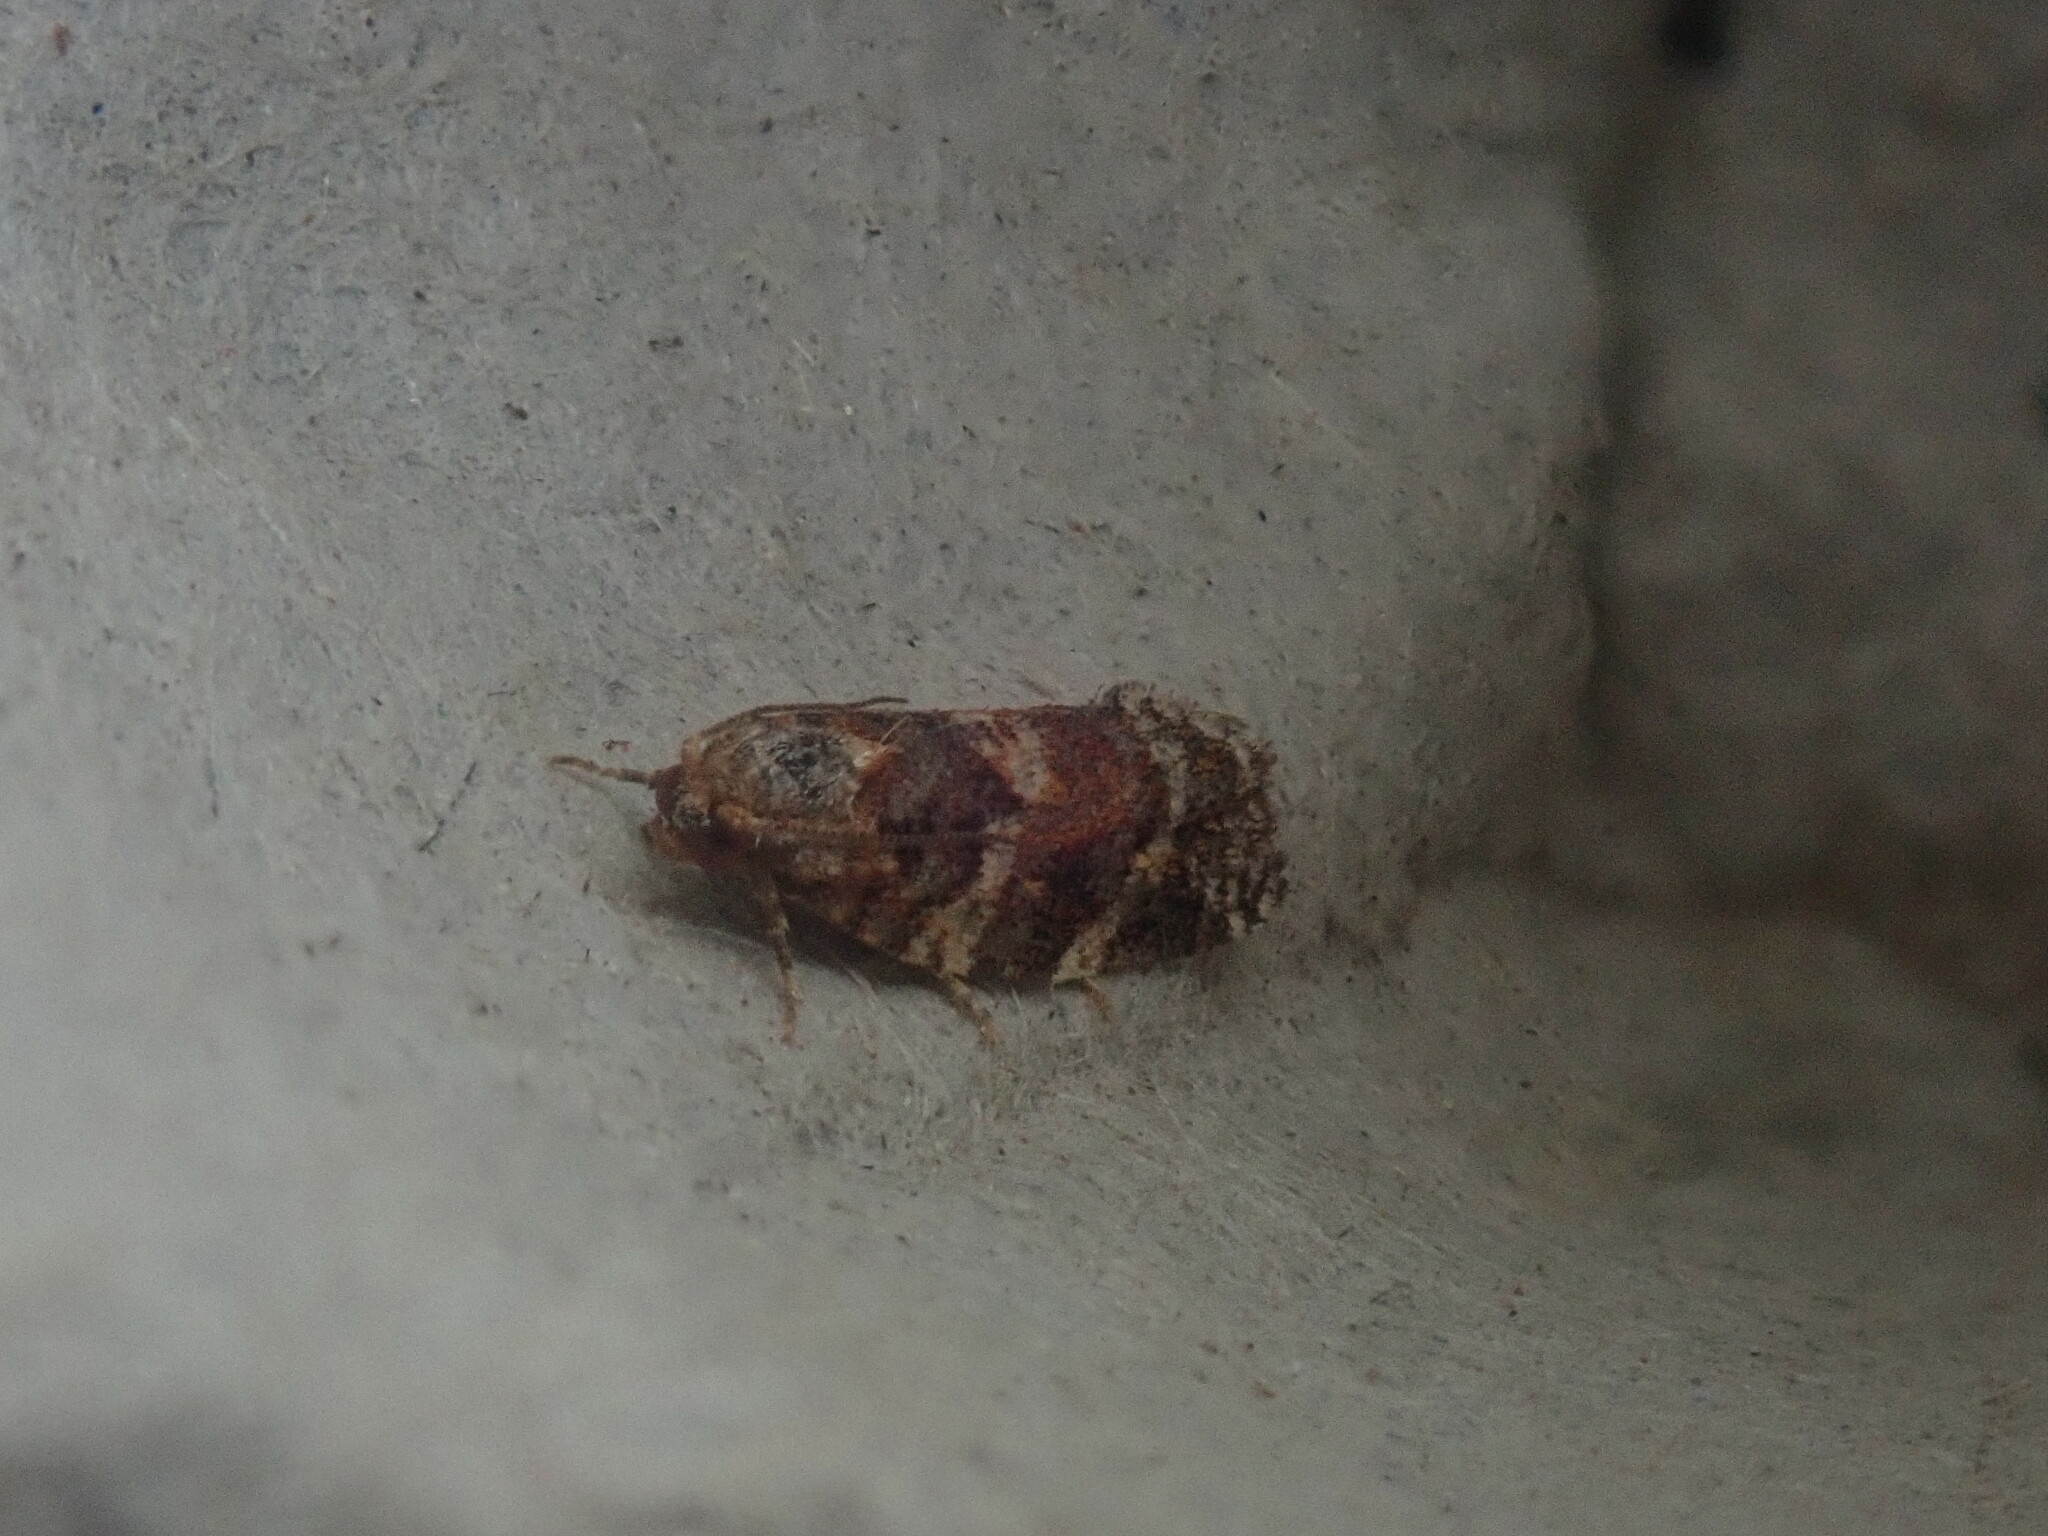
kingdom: Animalia
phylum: Arthropoda
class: Insecta
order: Lepidoptera
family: Tortricidae
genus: Argyrotaenia
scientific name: Argyrotaenia velutinana
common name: Red-banded leafroller moth
